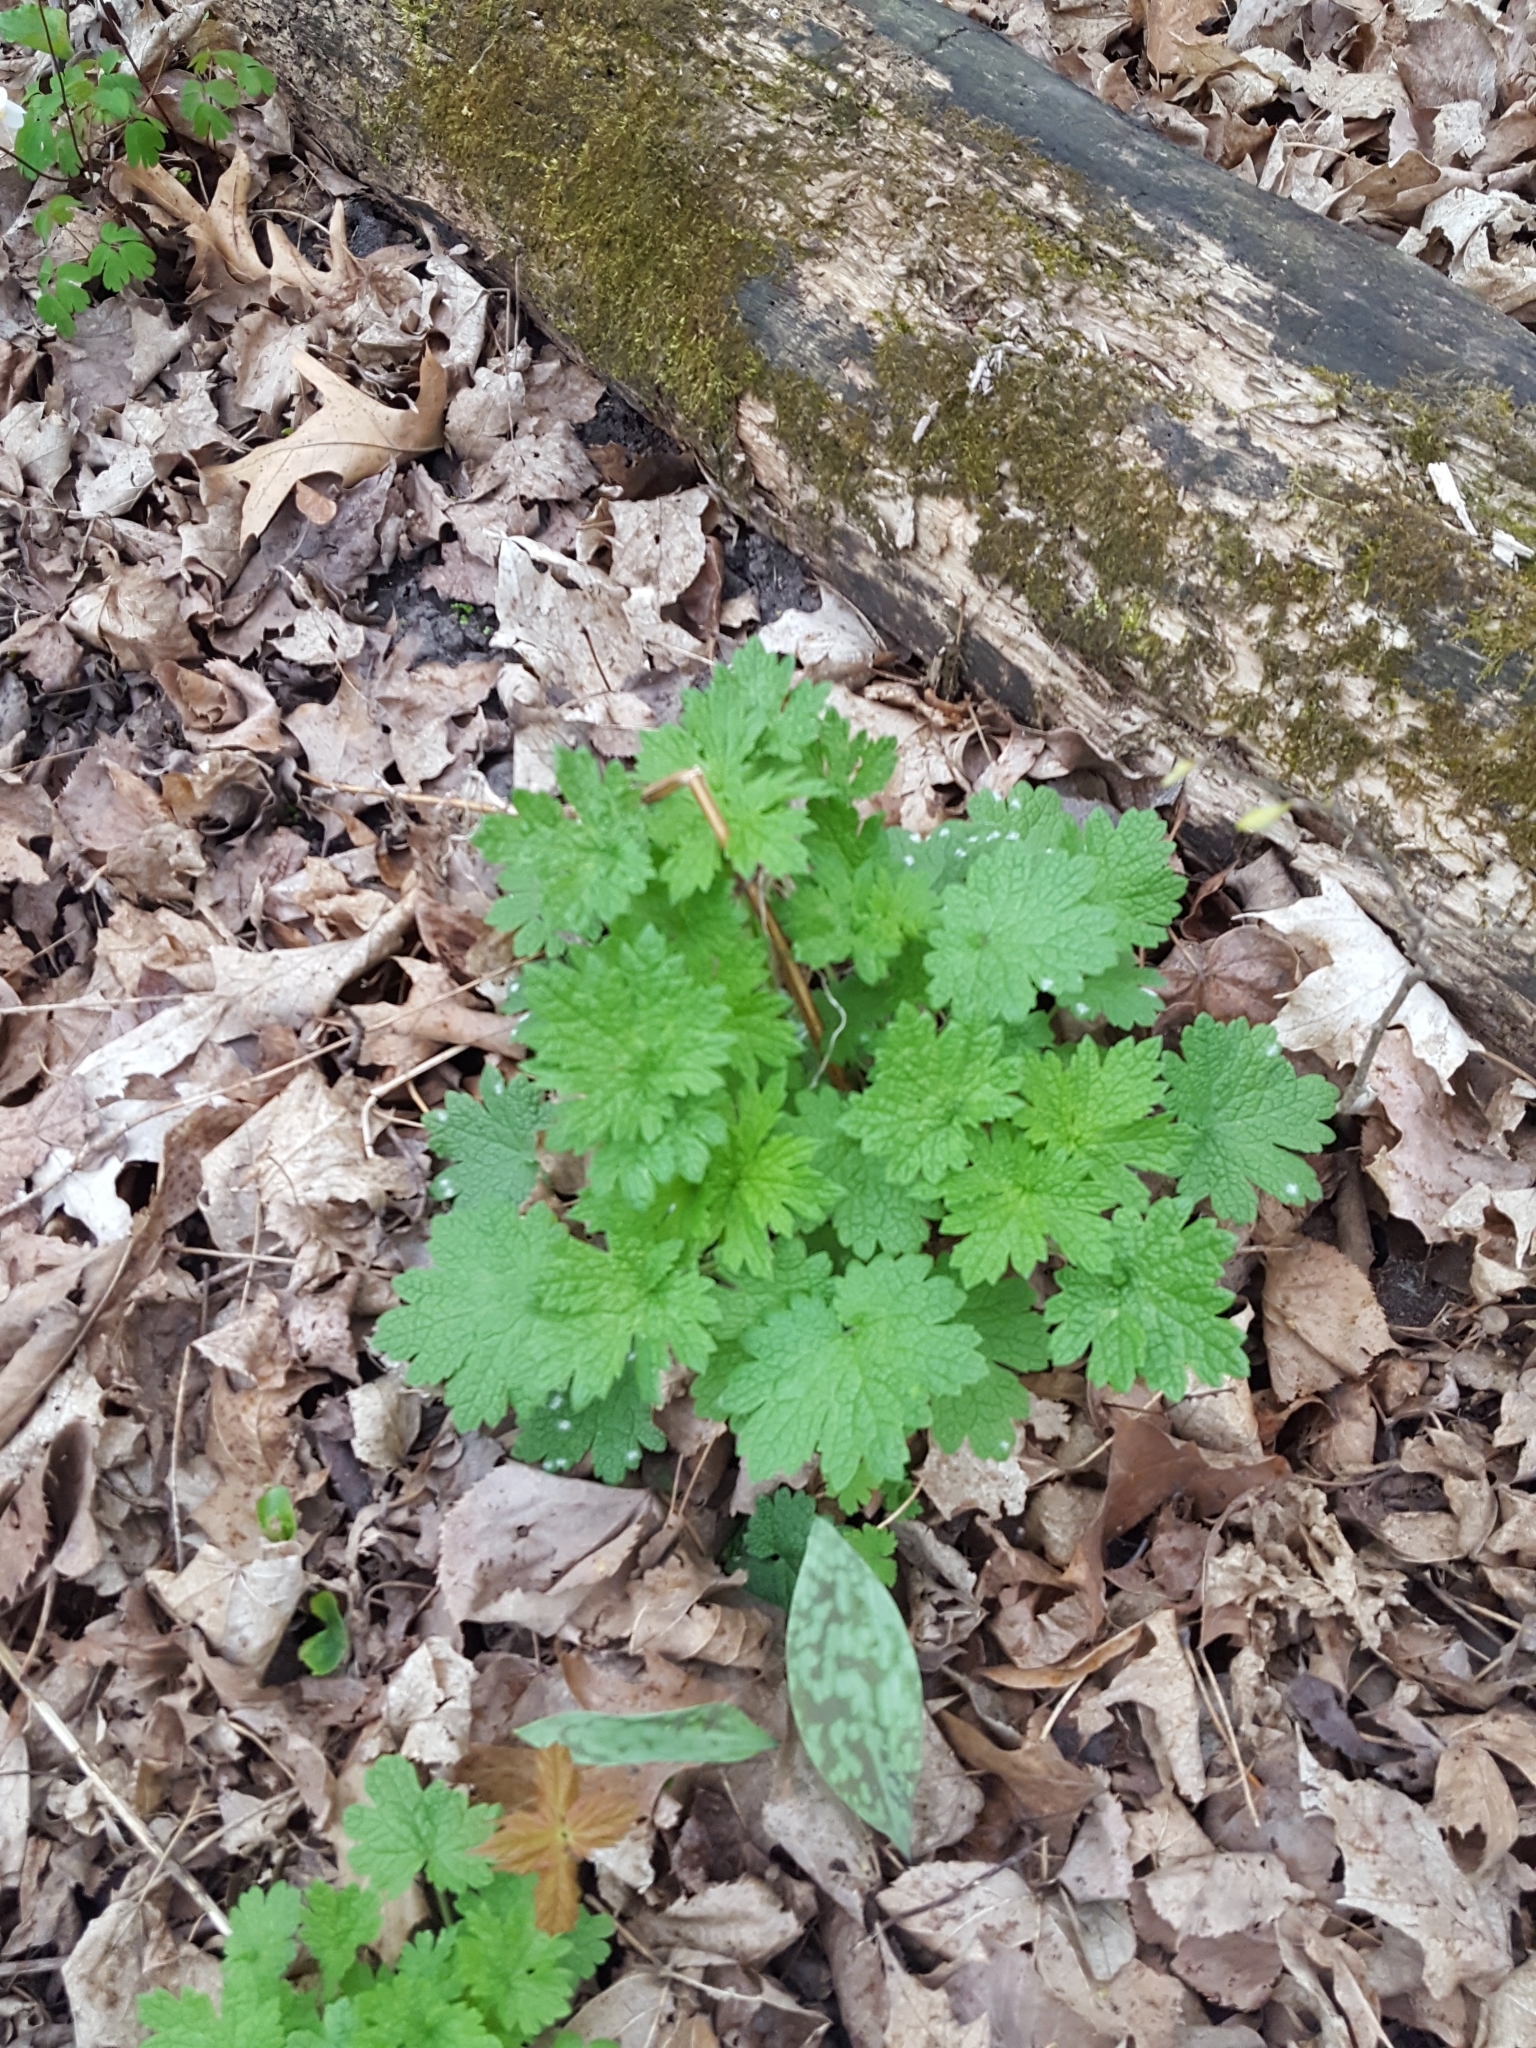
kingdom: Plantae
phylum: Tracheophyta
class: Magnoliopsida
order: Lamiales
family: Lamiaceae
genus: Leonurus
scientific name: Leonurus cardiaca
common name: Motherwort
